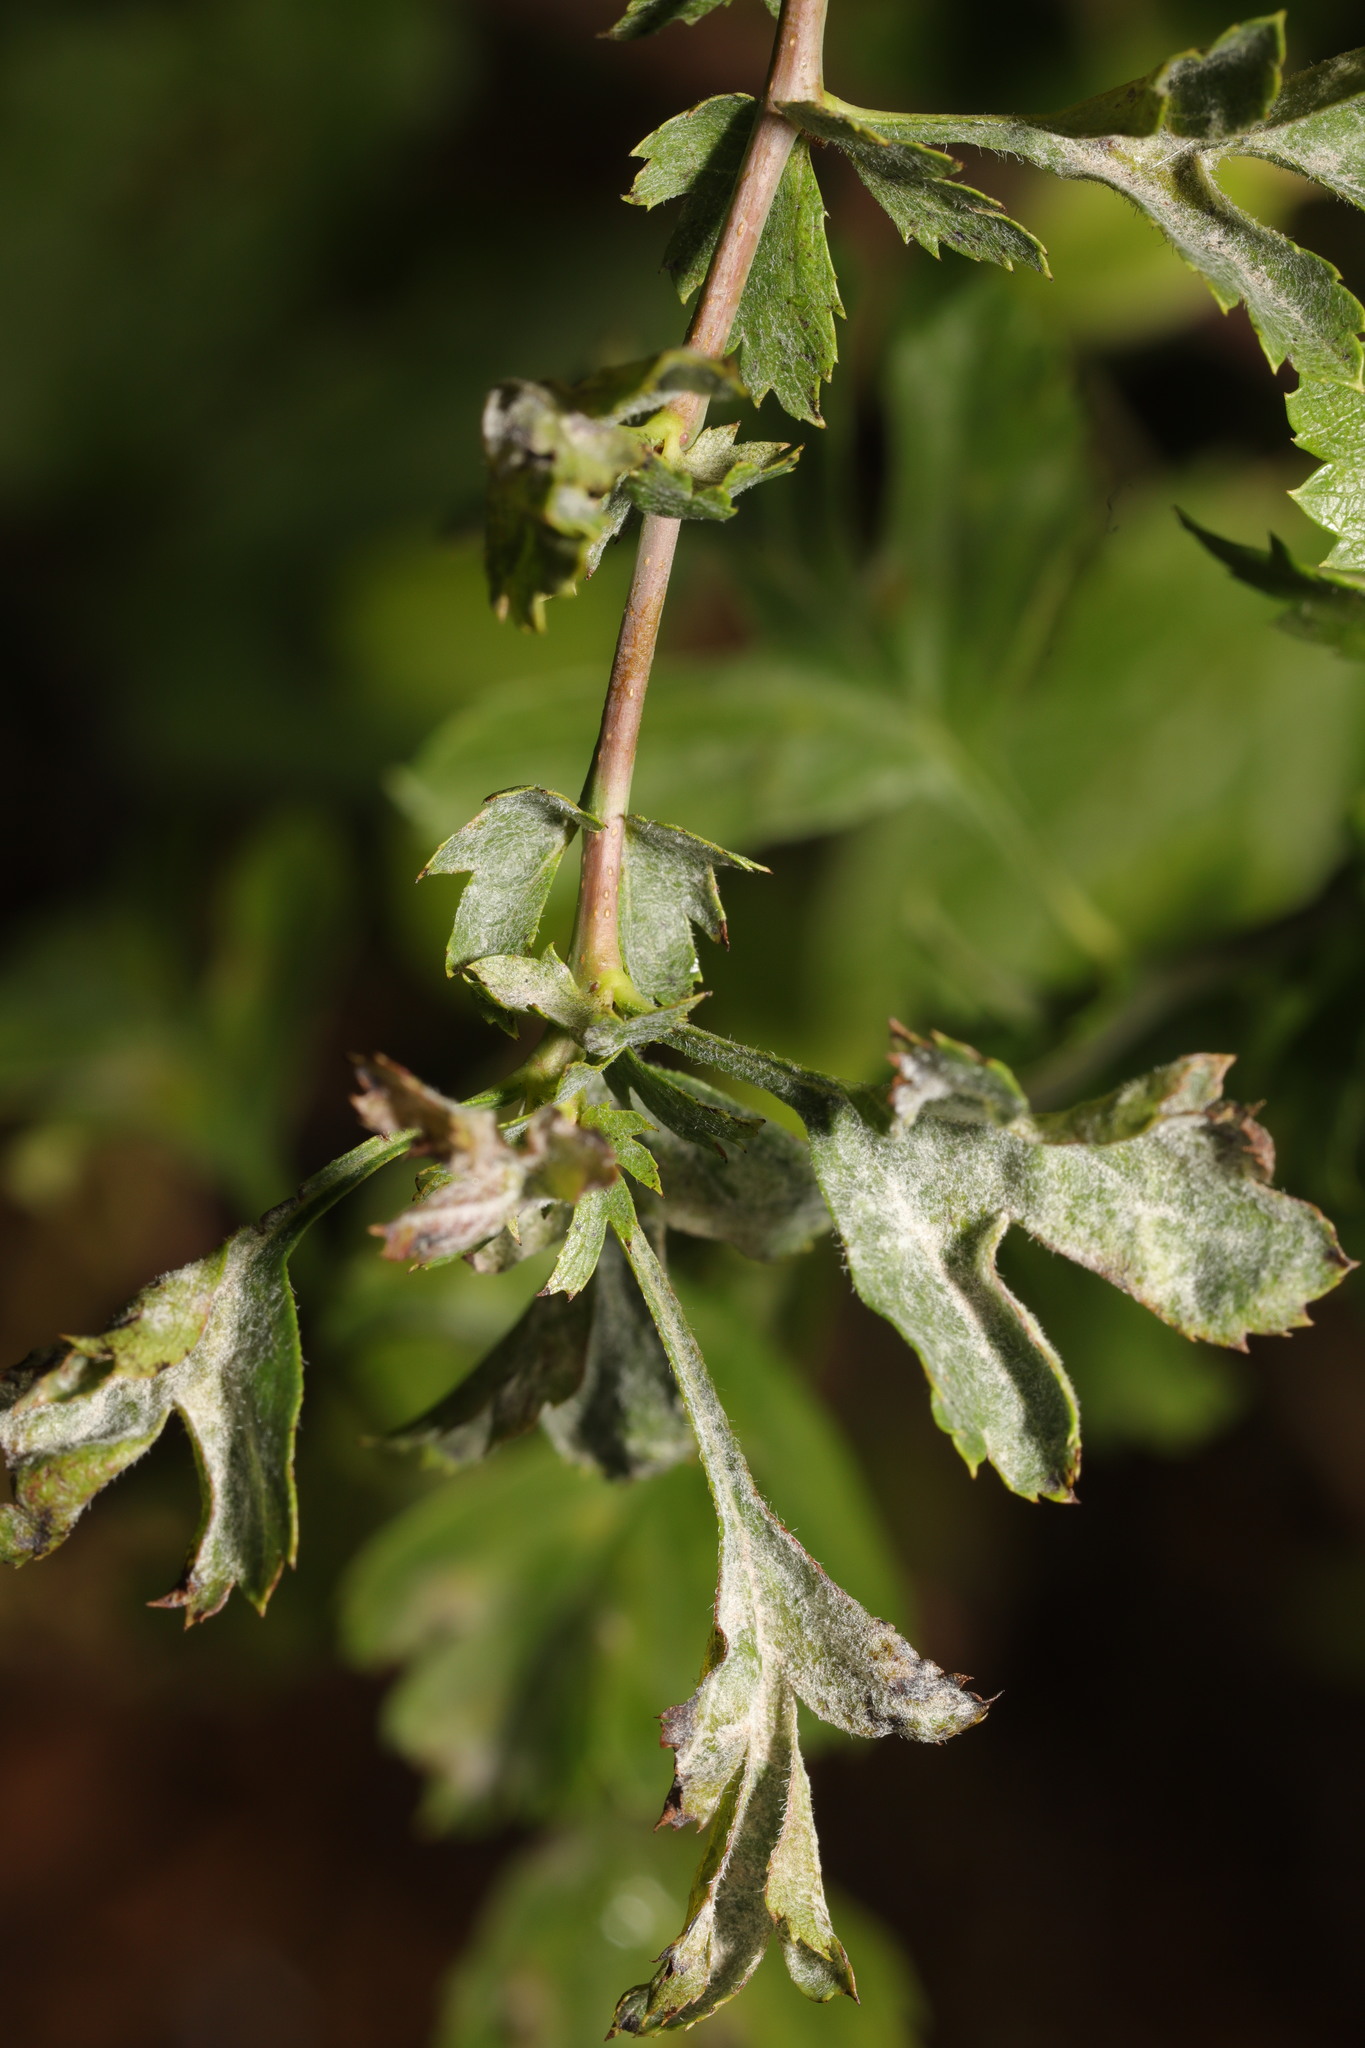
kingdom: Fungi
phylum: Ascomycota
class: Leotiomycetes
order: Helotiales
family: Erysiphaceae
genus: Podosphaera
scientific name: Podosphaera clandestina
